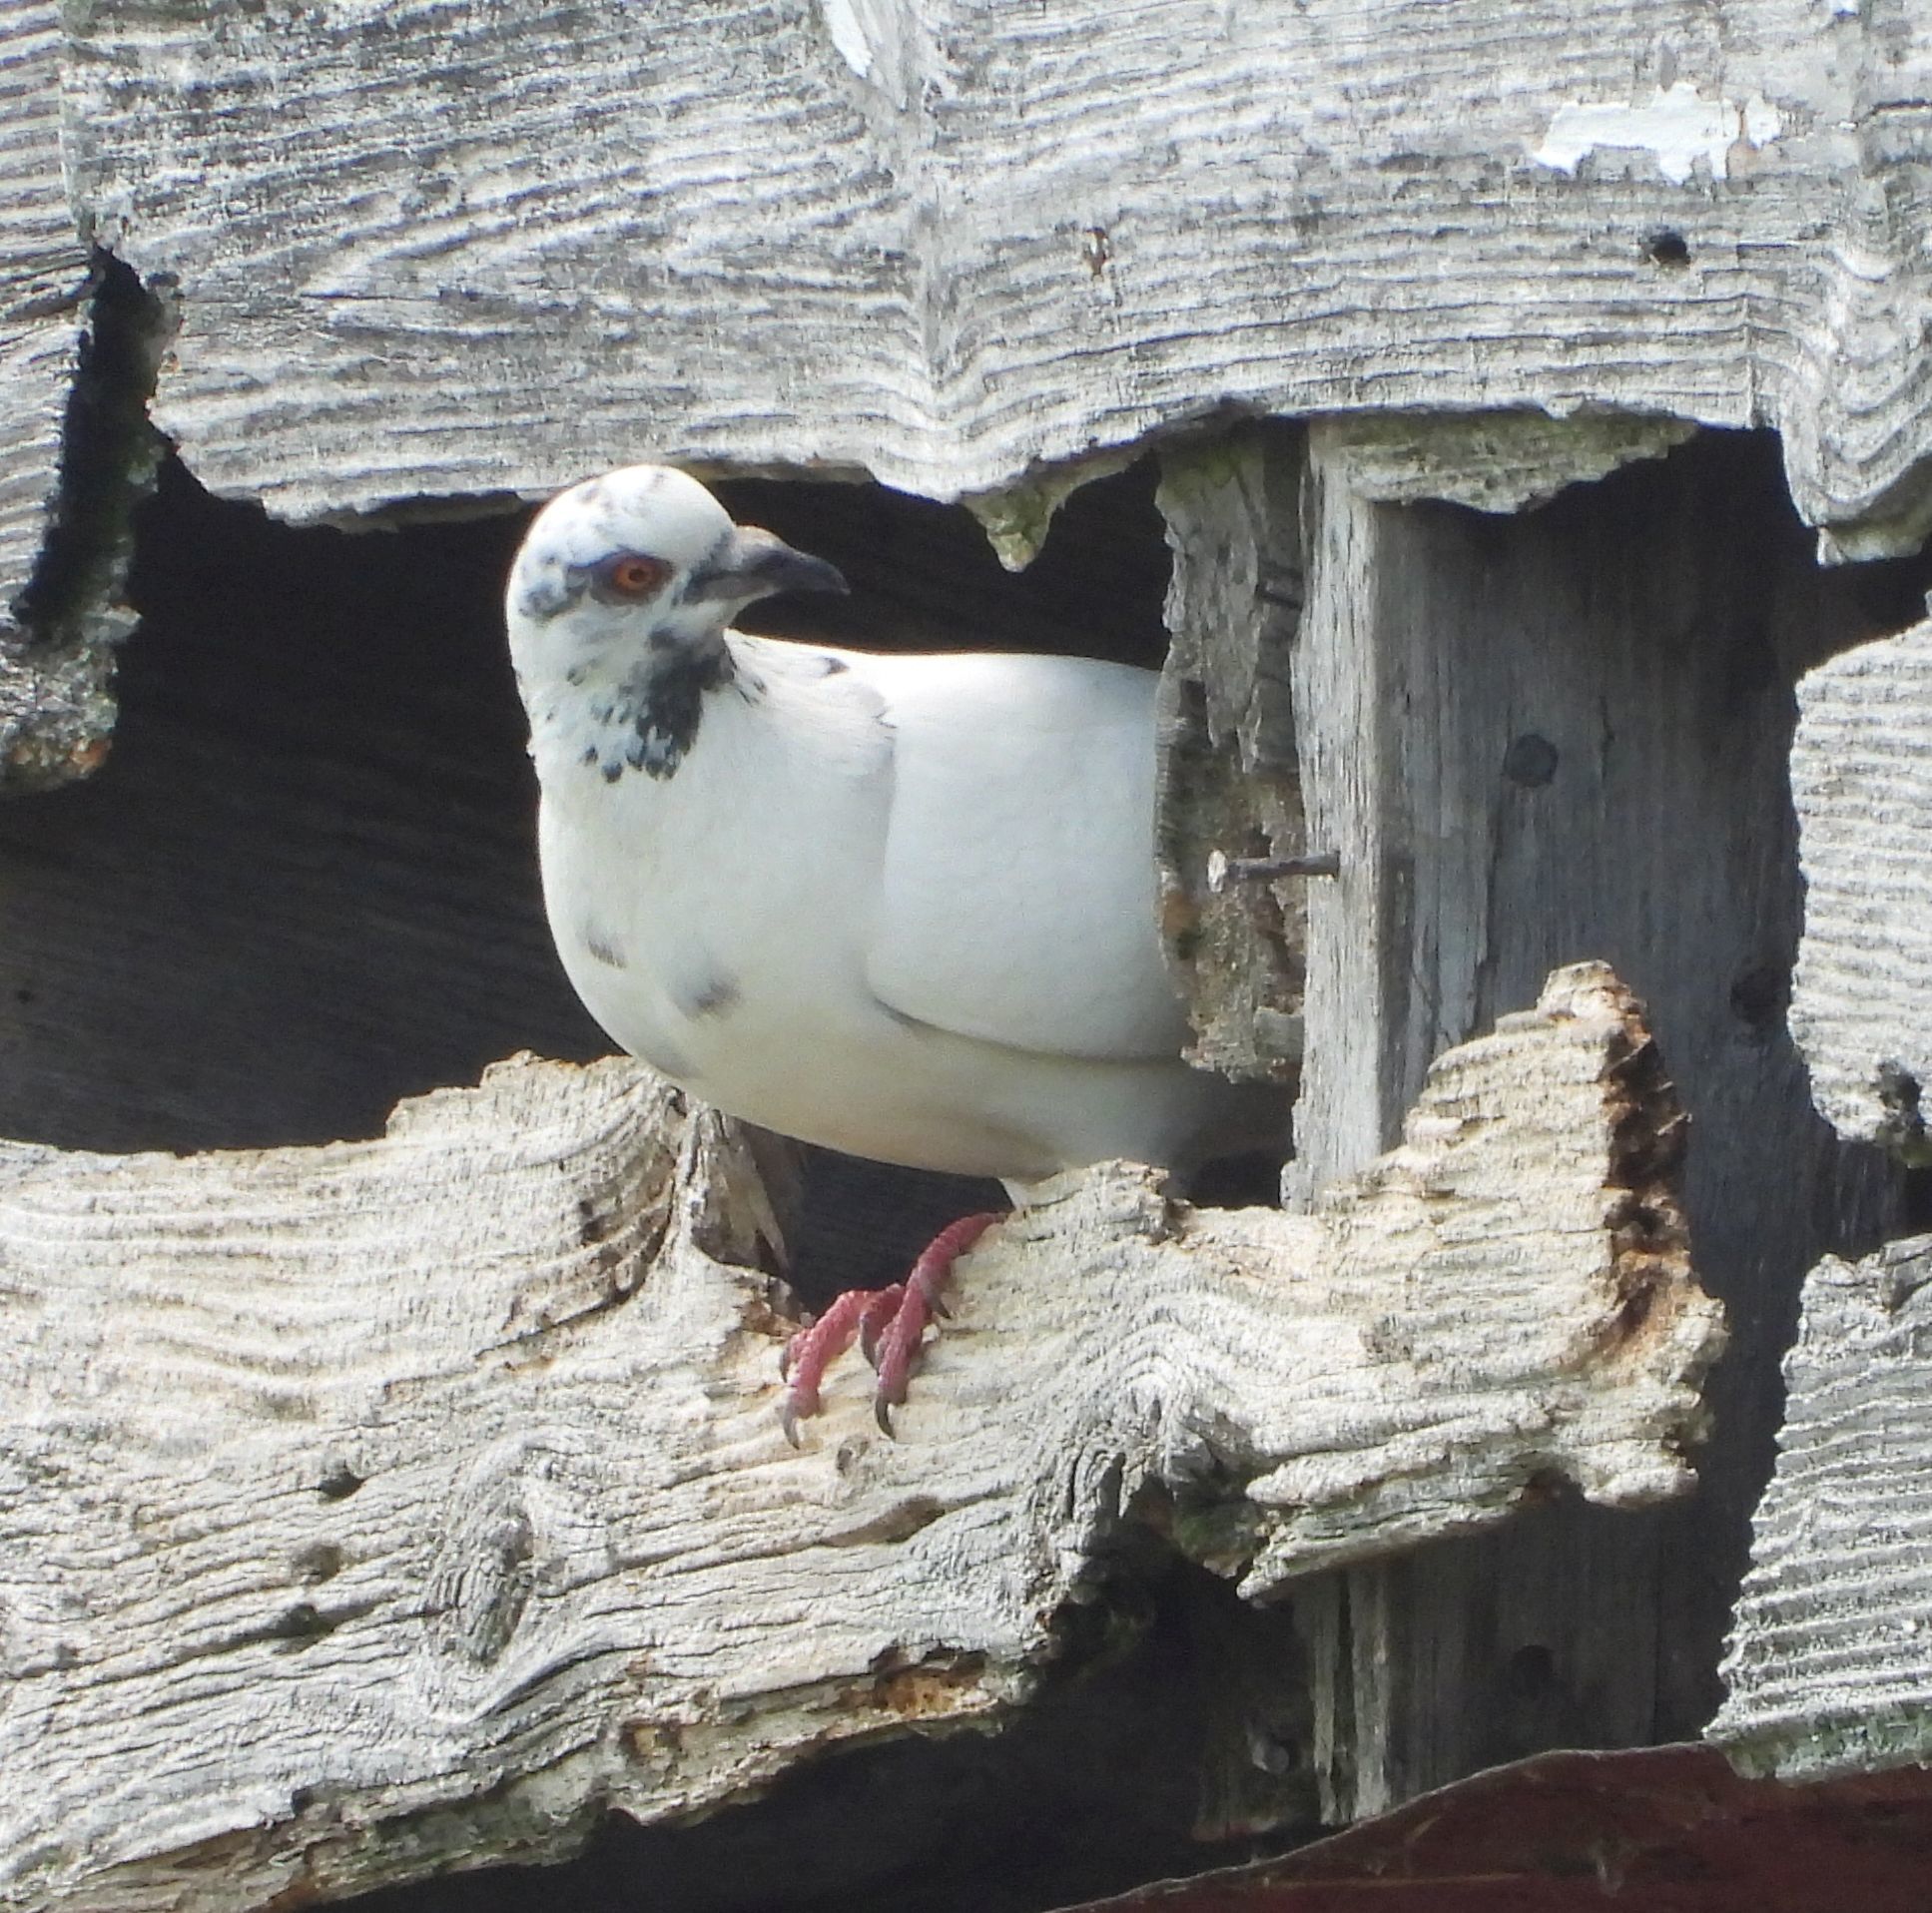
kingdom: Animalia
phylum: Chordata
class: Aves
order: Columbiformes
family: Columbidae
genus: Columba
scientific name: Columba livia
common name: Rock pigeon
